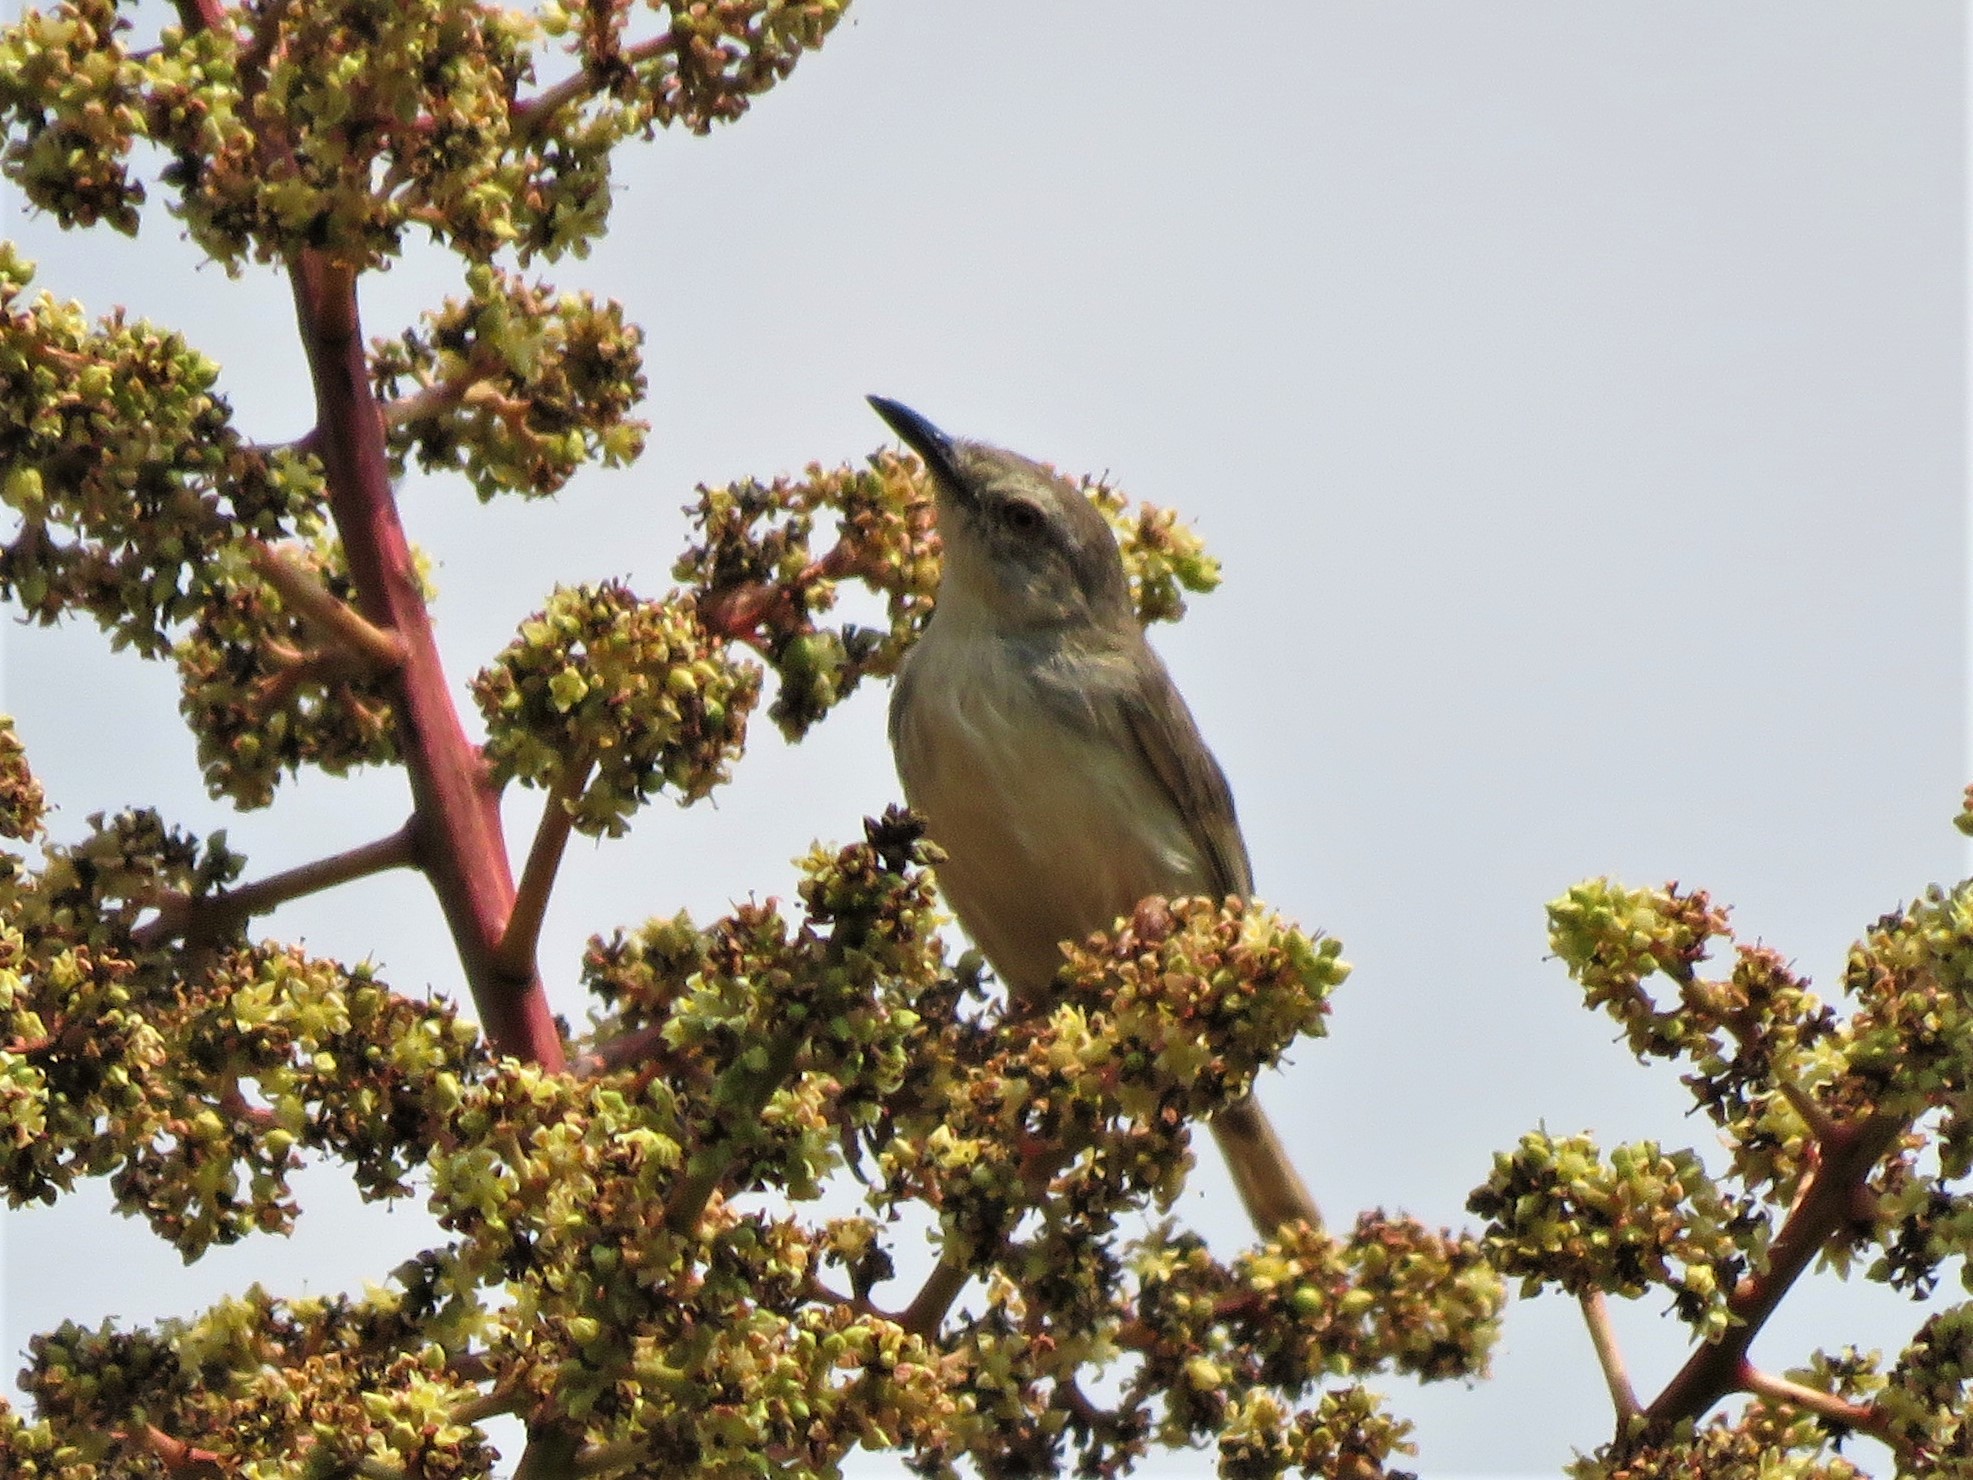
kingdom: Animalia
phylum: Chordata
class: Aves
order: Passeriformes
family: Cisticolidae
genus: Prinia
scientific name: Prinia subflava
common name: Tawny-flanked prinia
